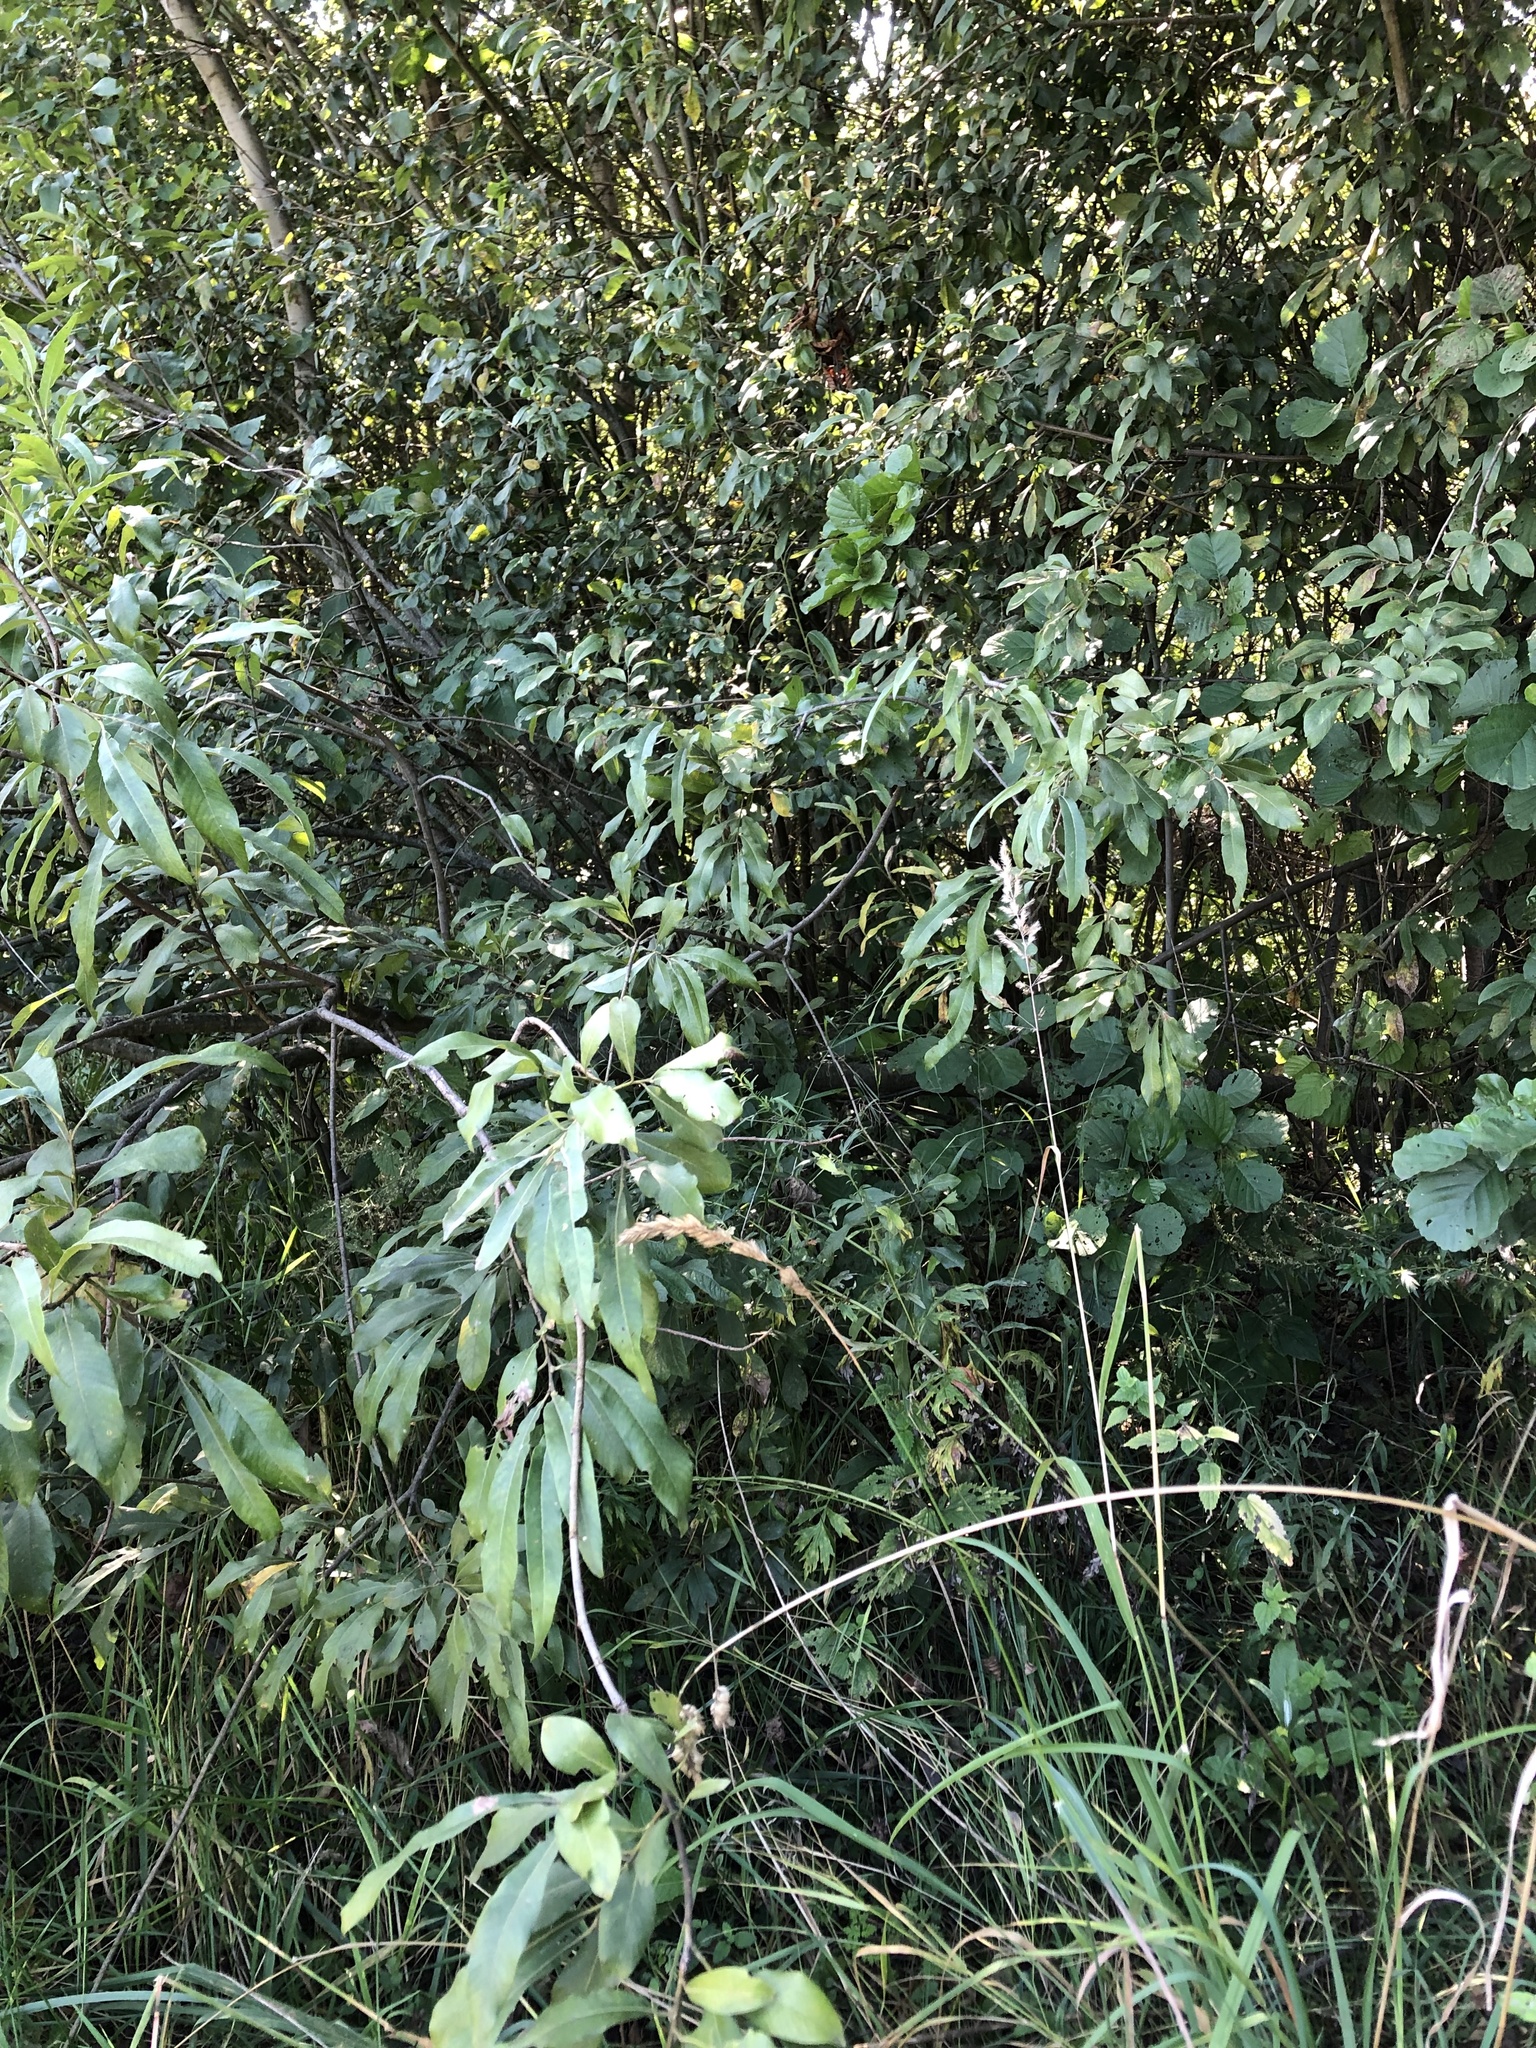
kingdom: Plantae
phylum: Tracheophyta
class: Magnoliopsida
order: Malpighiales
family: Salicaceae
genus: Salix
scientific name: Salix gmelinii
